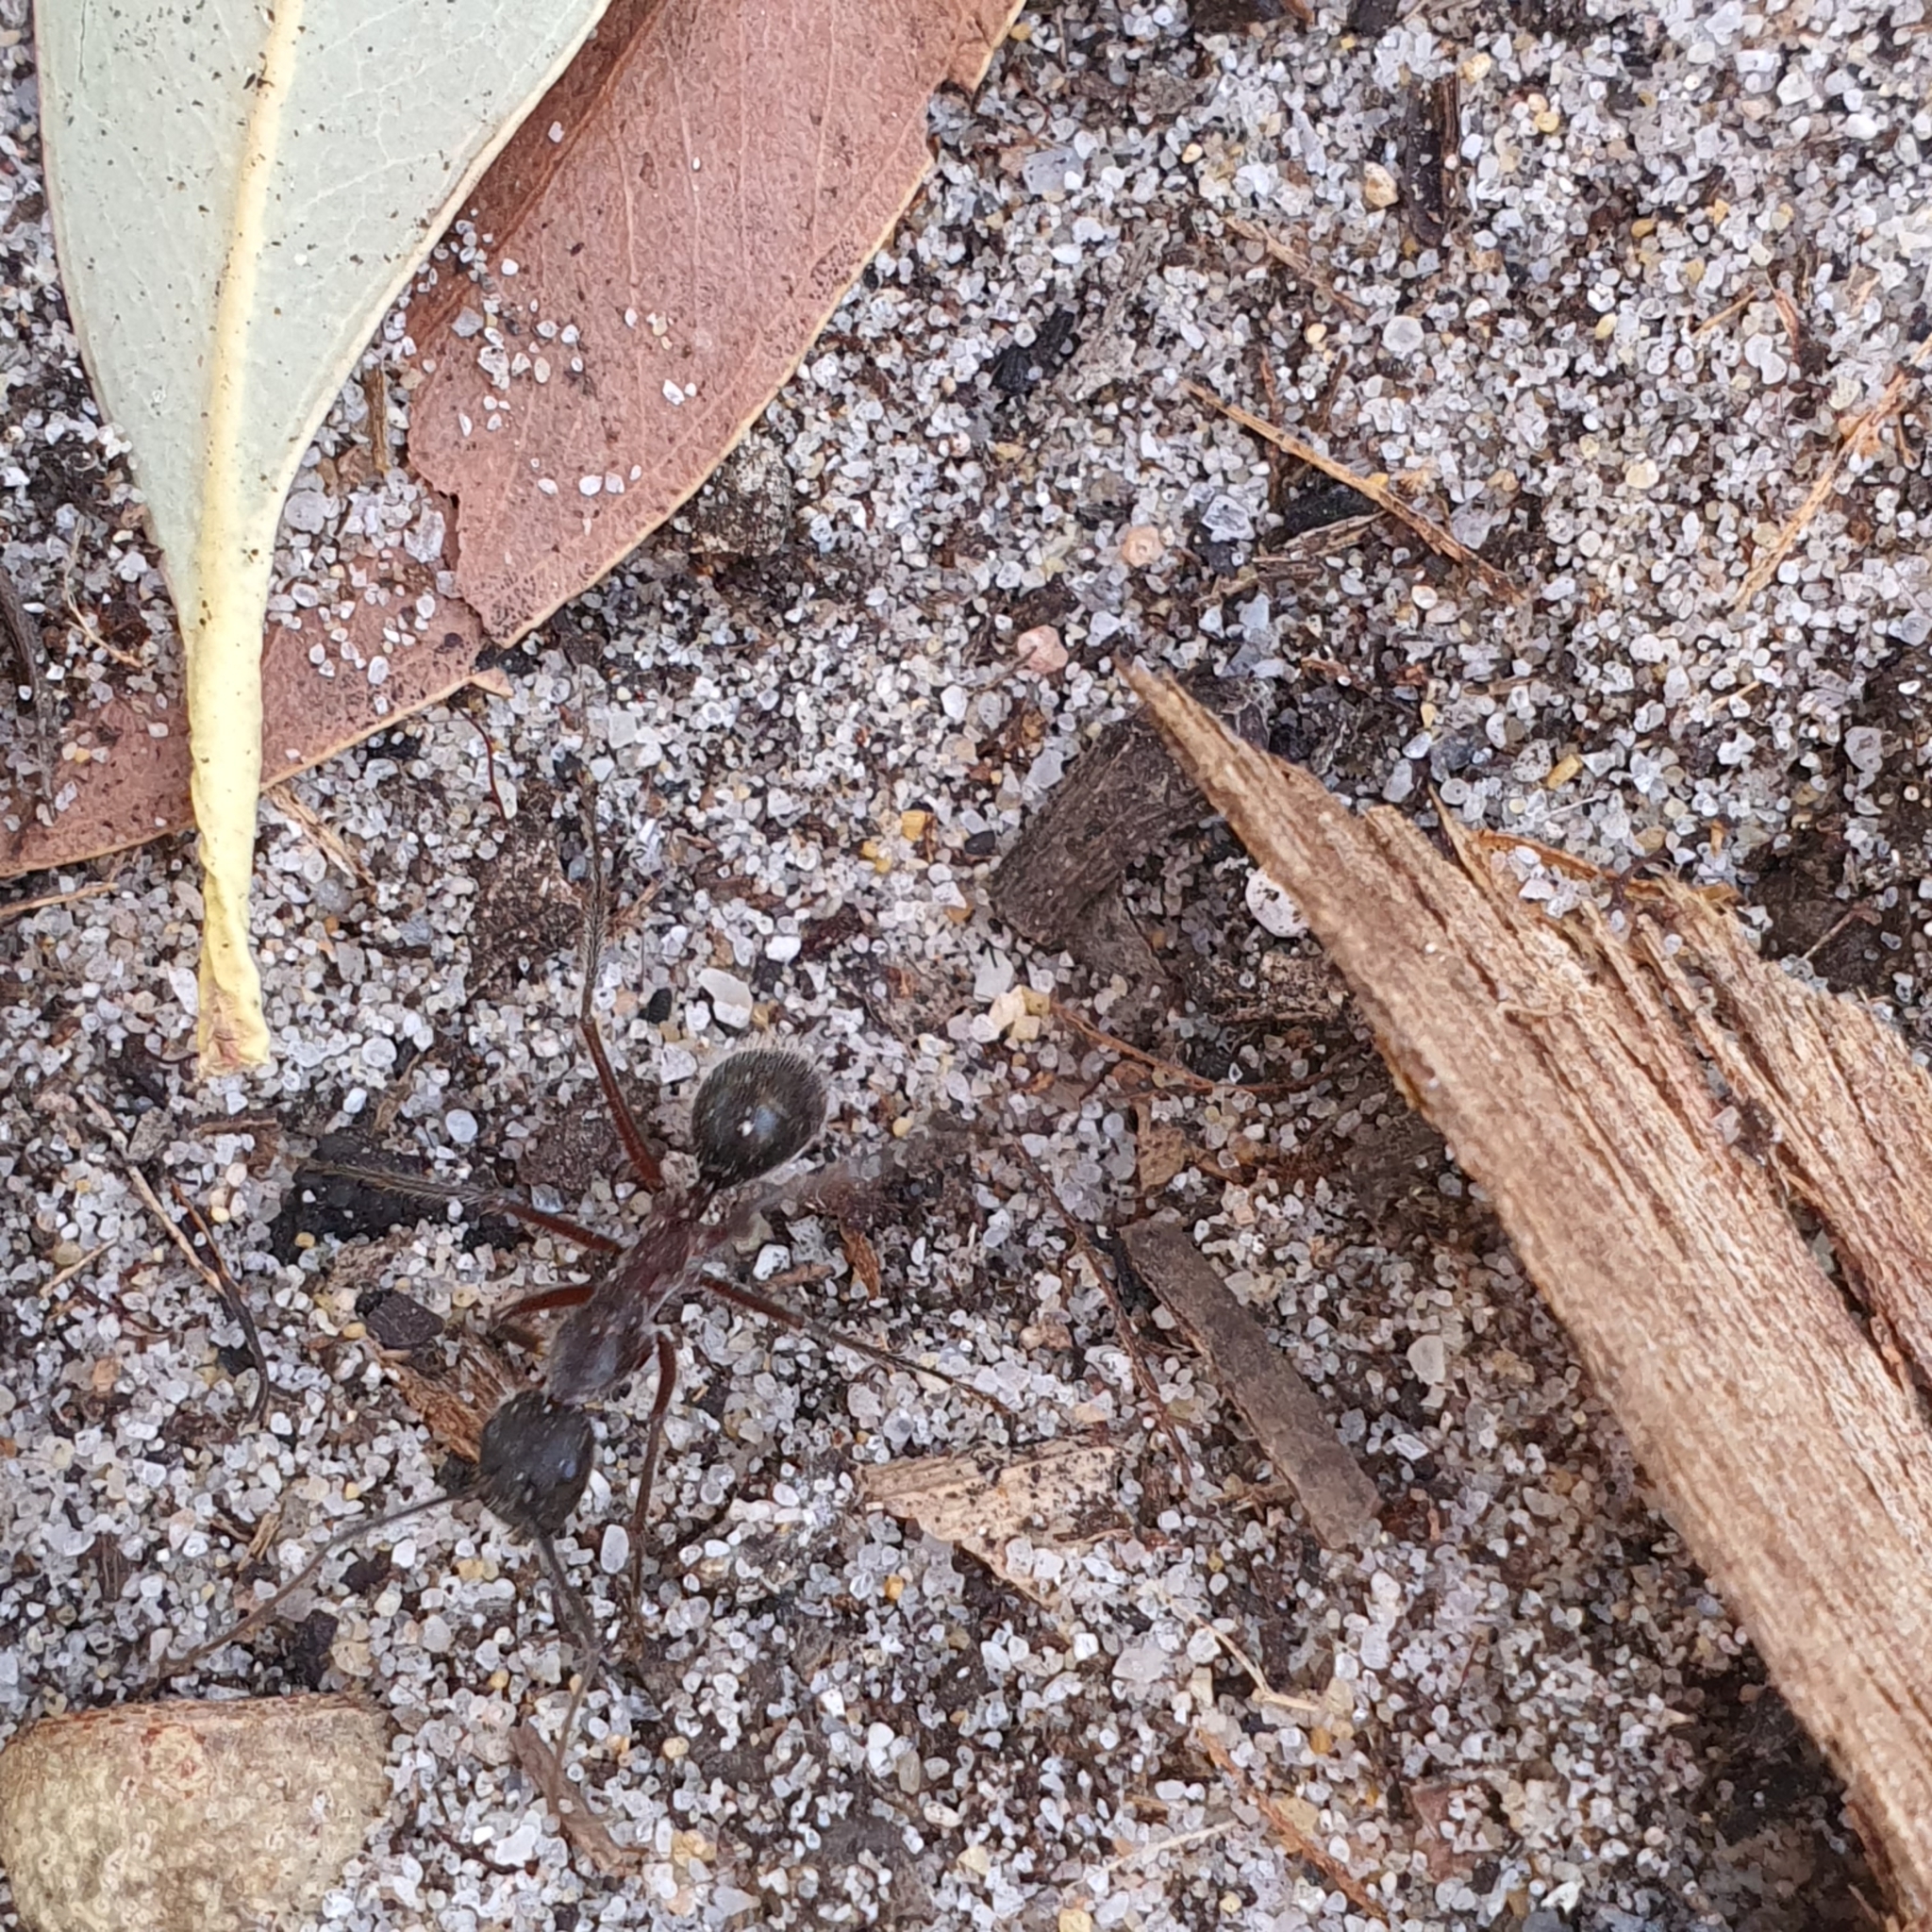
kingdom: Animalia
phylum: Arthropoda
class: Insecta
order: Hymenoptera
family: Formicidae
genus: Camponotus
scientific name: Camponotus intrepidus
